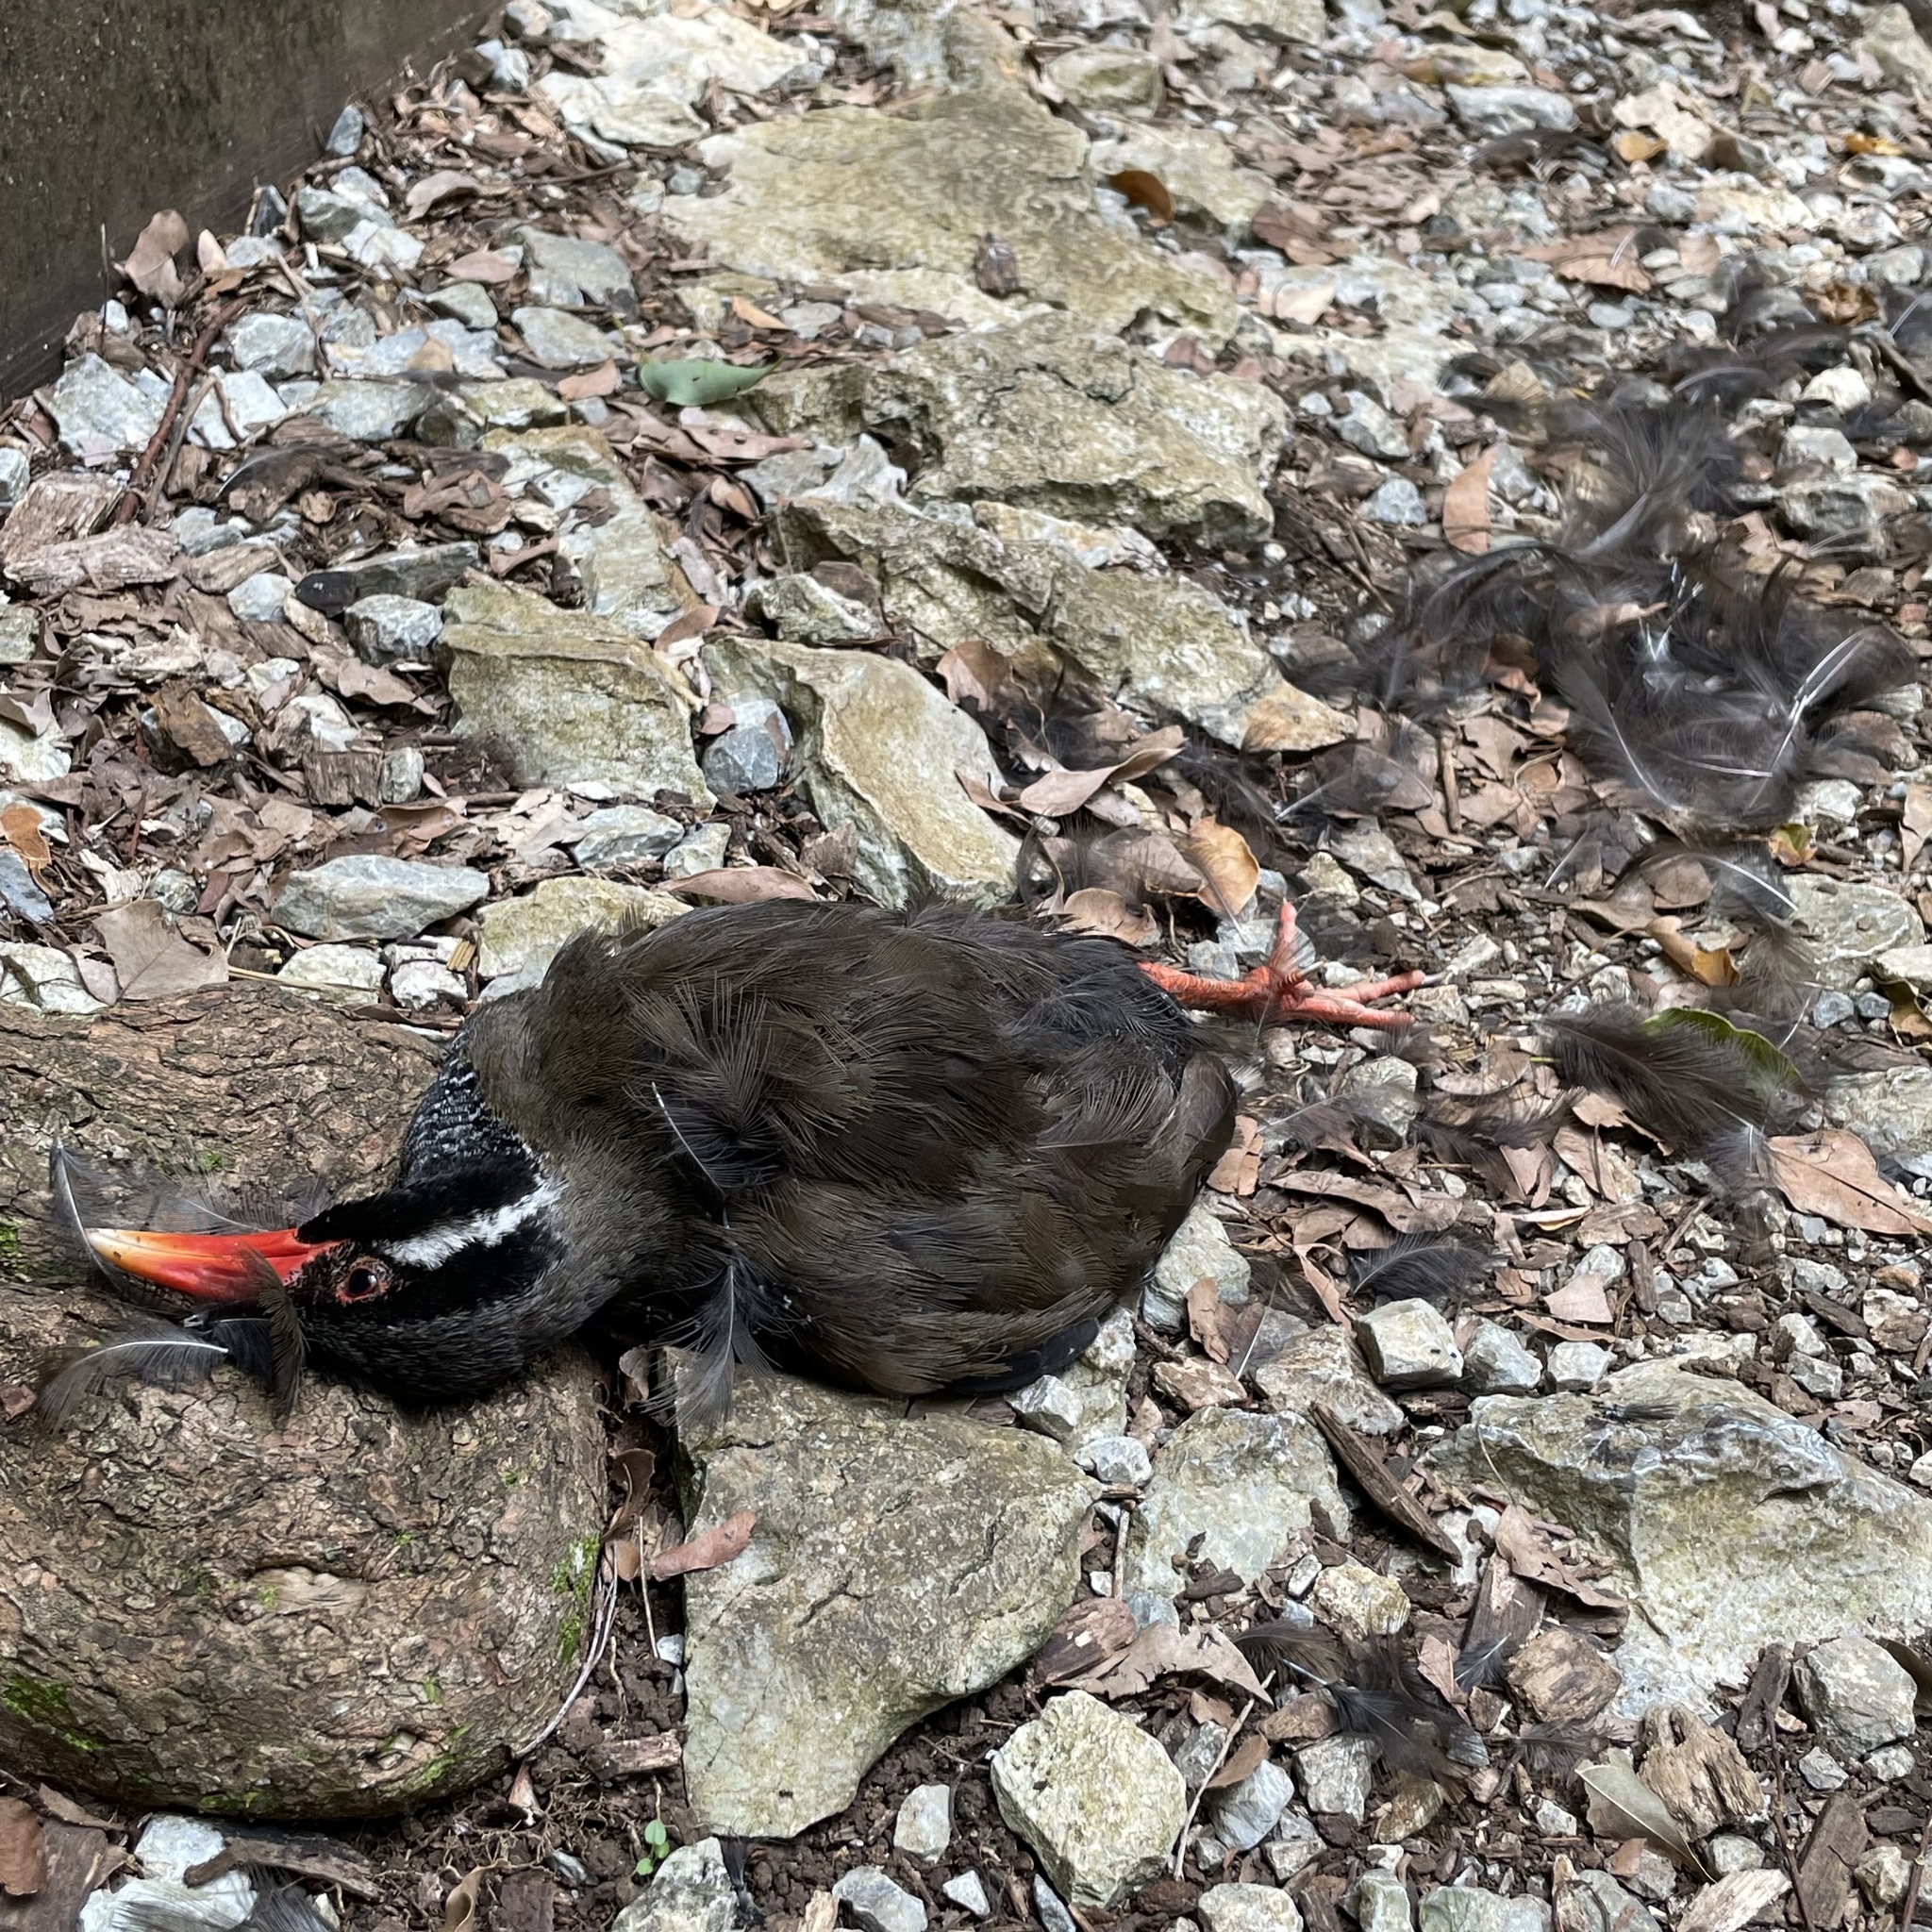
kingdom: Animalia
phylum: Chordata
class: Aves
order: Gruiformes
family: Rallidae
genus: Gallirallus
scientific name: Gallirallus okinawae
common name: Okinawa rail
